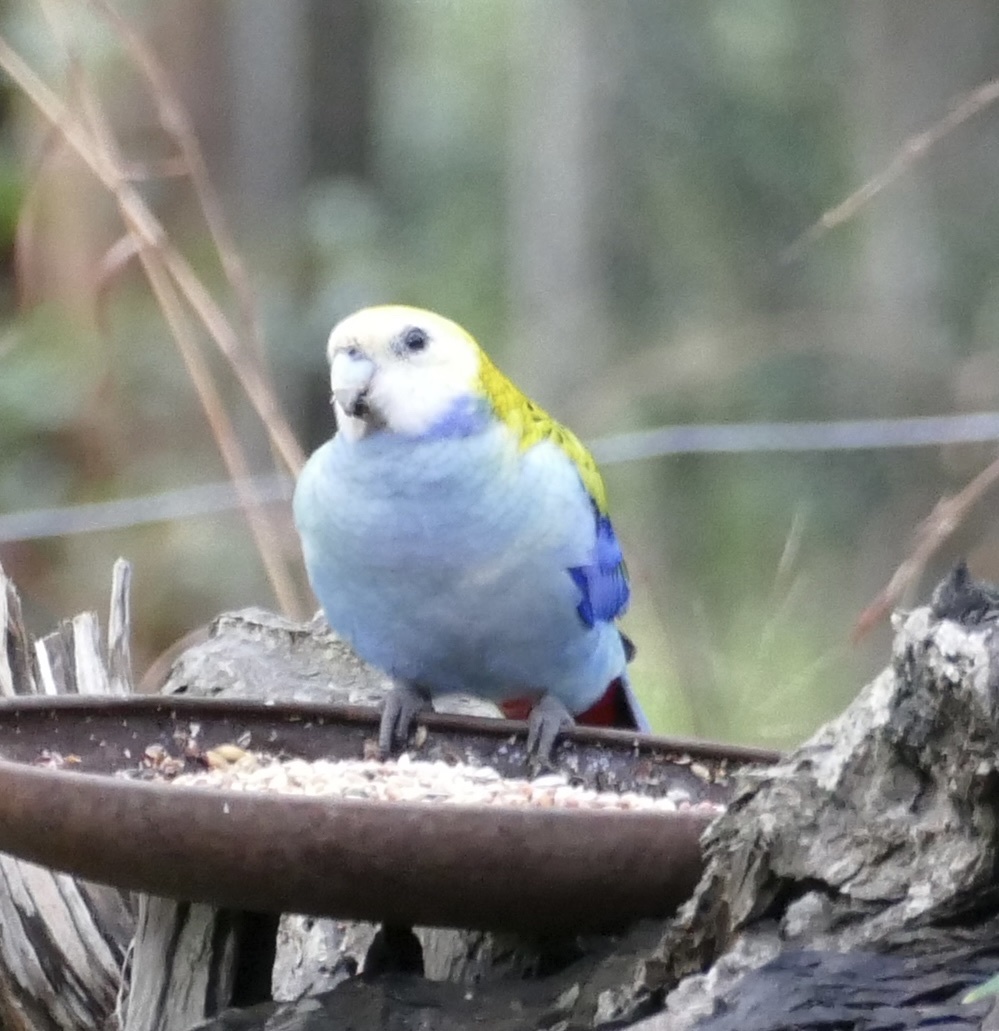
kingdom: Animalia
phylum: Chordata
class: Aves
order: Psittaciformes
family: Psittacidae
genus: Platycercus
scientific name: Platycercus adscitus
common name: Pale-headed rosella
